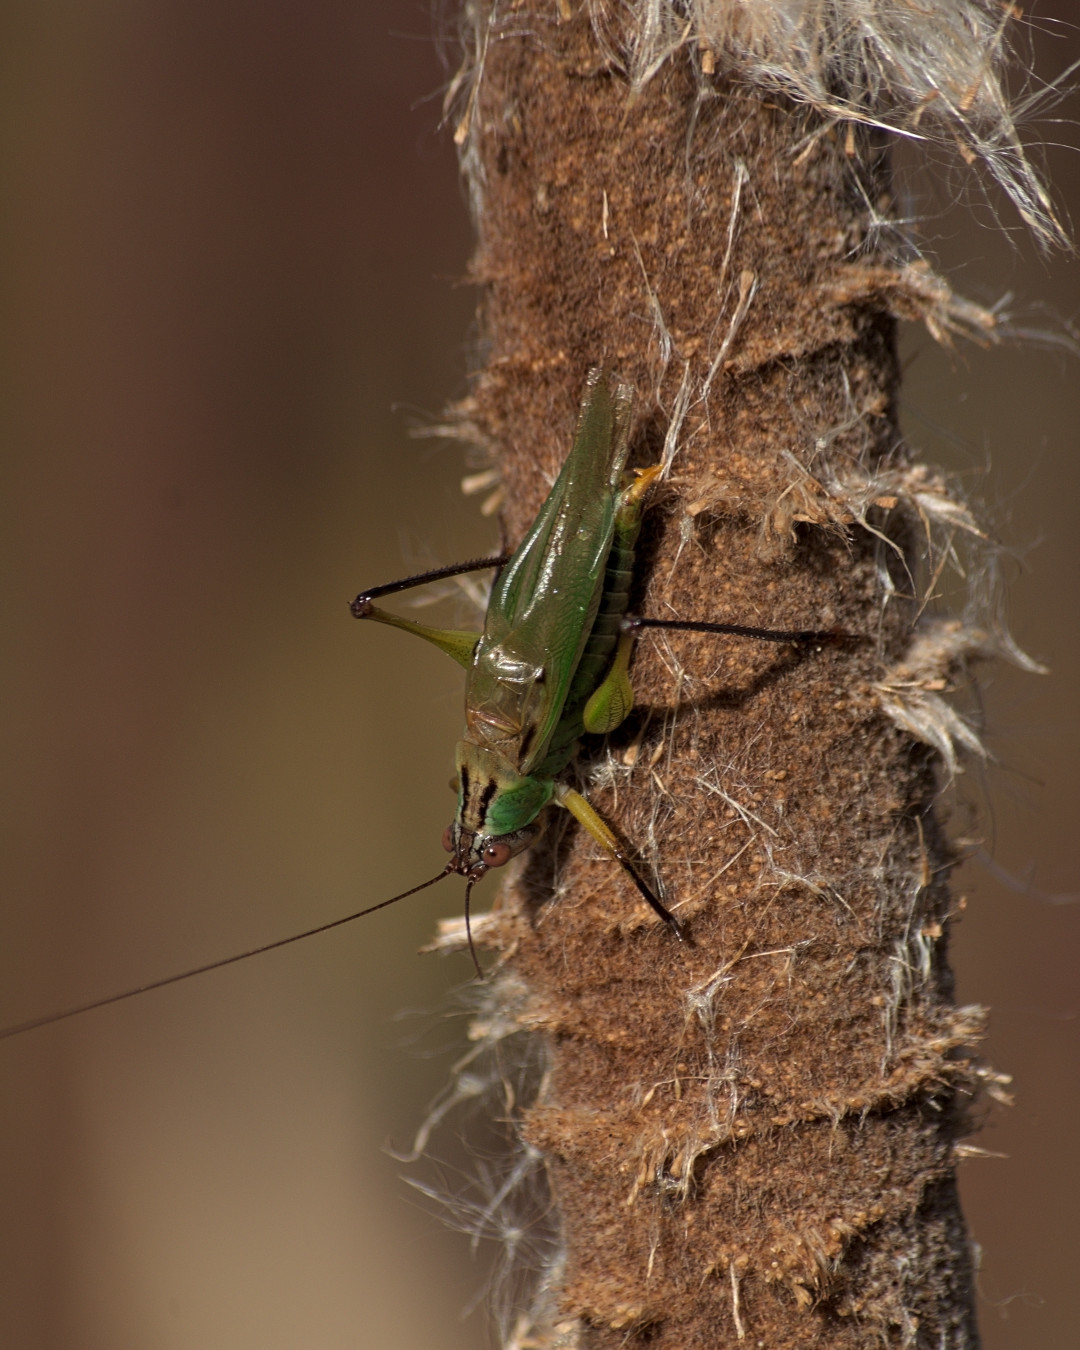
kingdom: Animalia
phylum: Arthropoda
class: Insecta
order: Orthoptera
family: Tettigoniidae
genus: Orchelimum
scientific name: Orchelimum nigripes
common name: Black-legged meadow katydid
